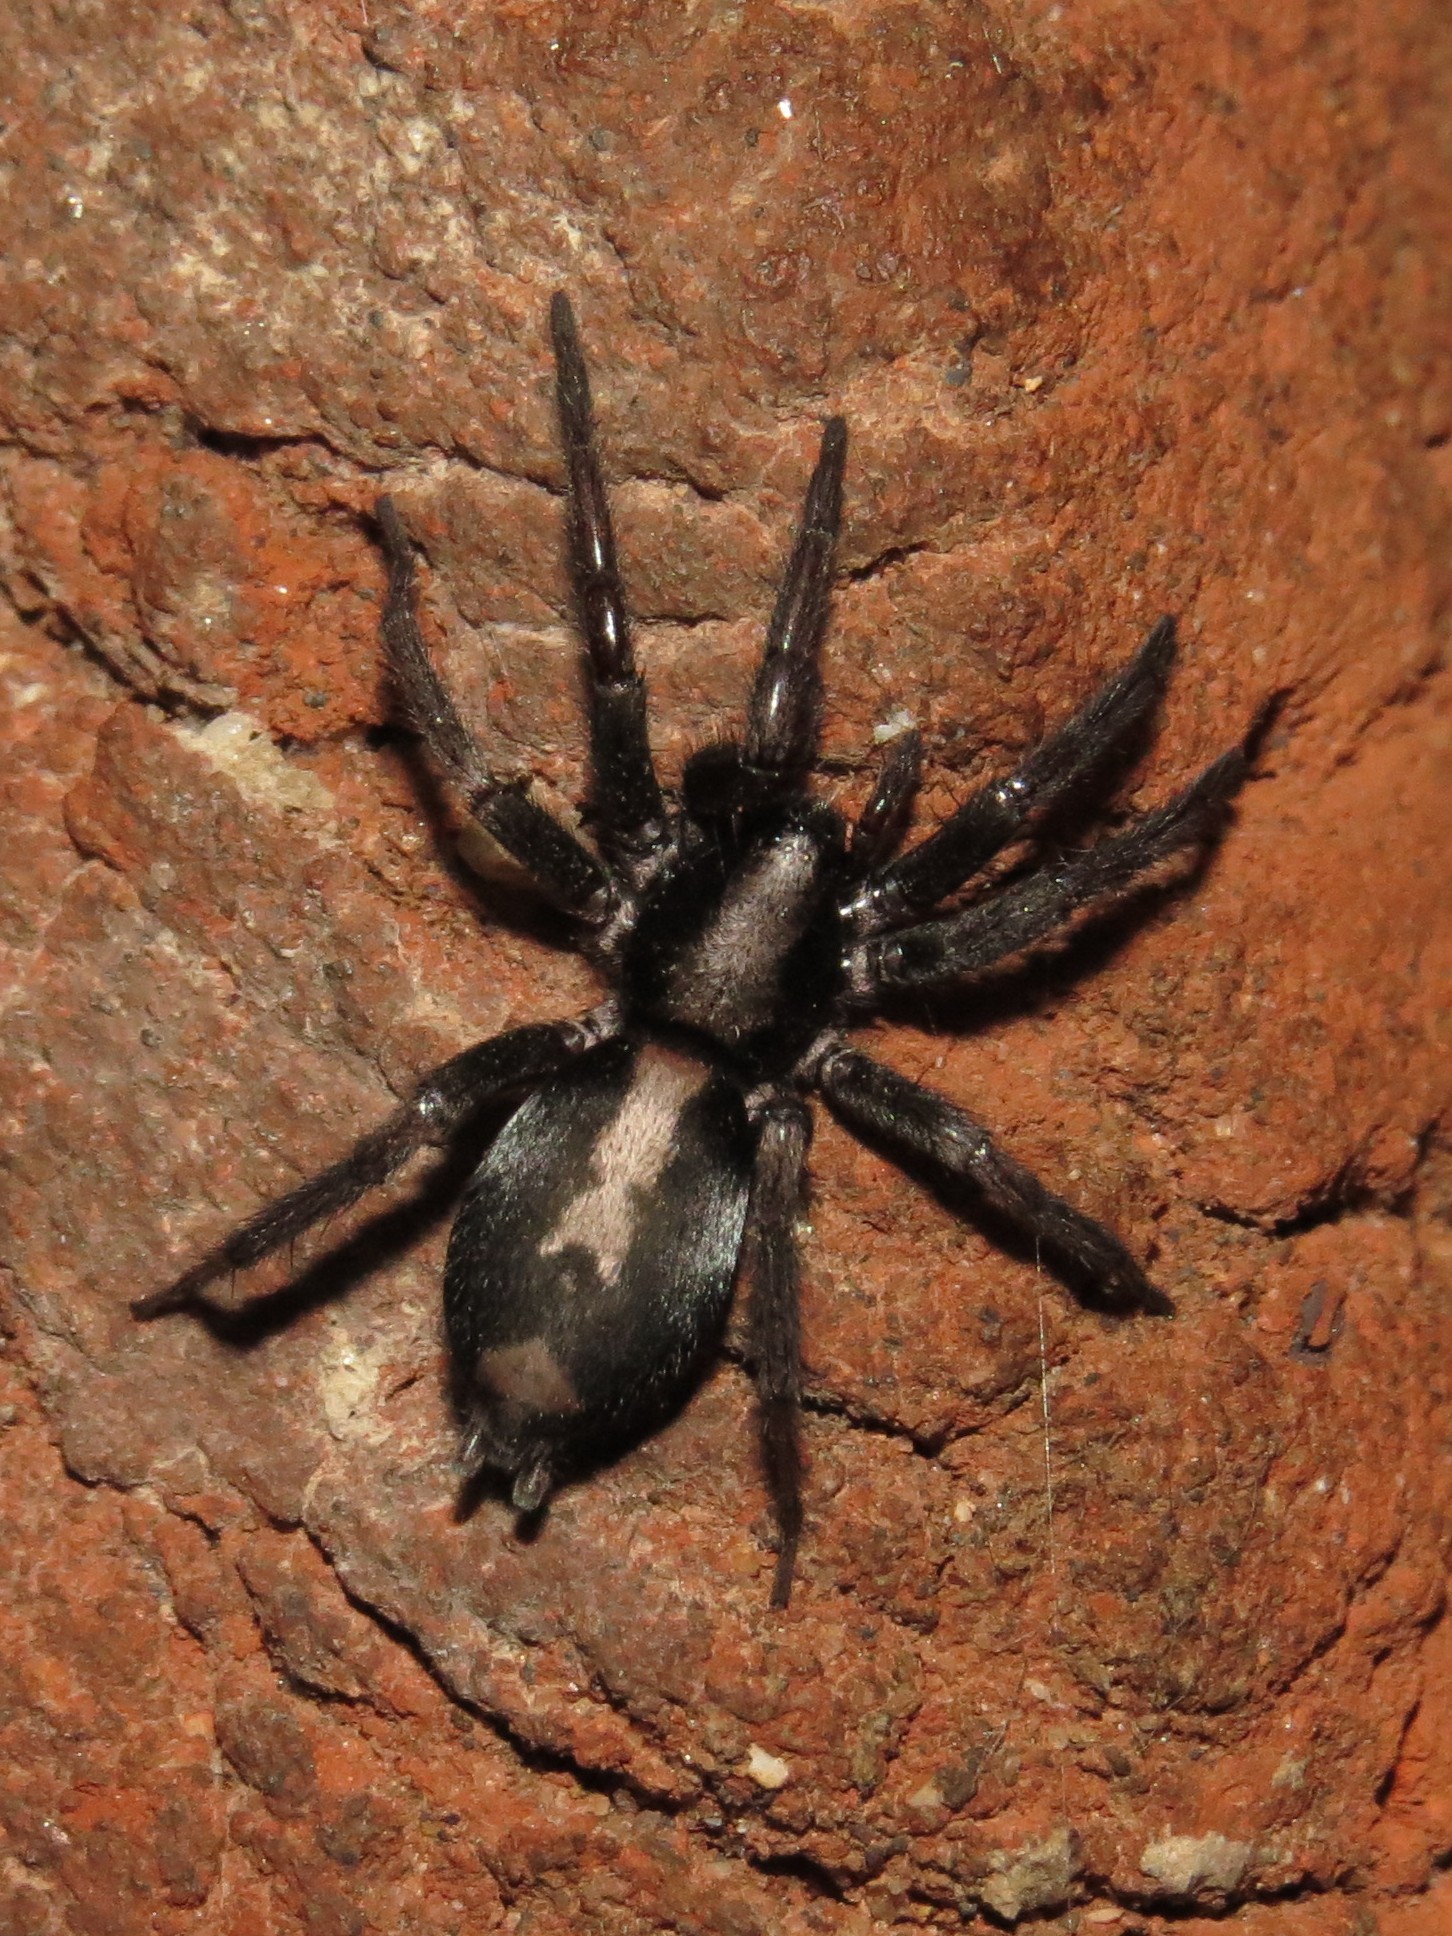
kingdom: Animalia
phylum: Arthropoda
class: Arachnida
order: Araneae
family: Gnaphosidae
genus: Herpyllus
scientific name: Herpyllus ecclesiasticus
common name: Eastern parson spider
